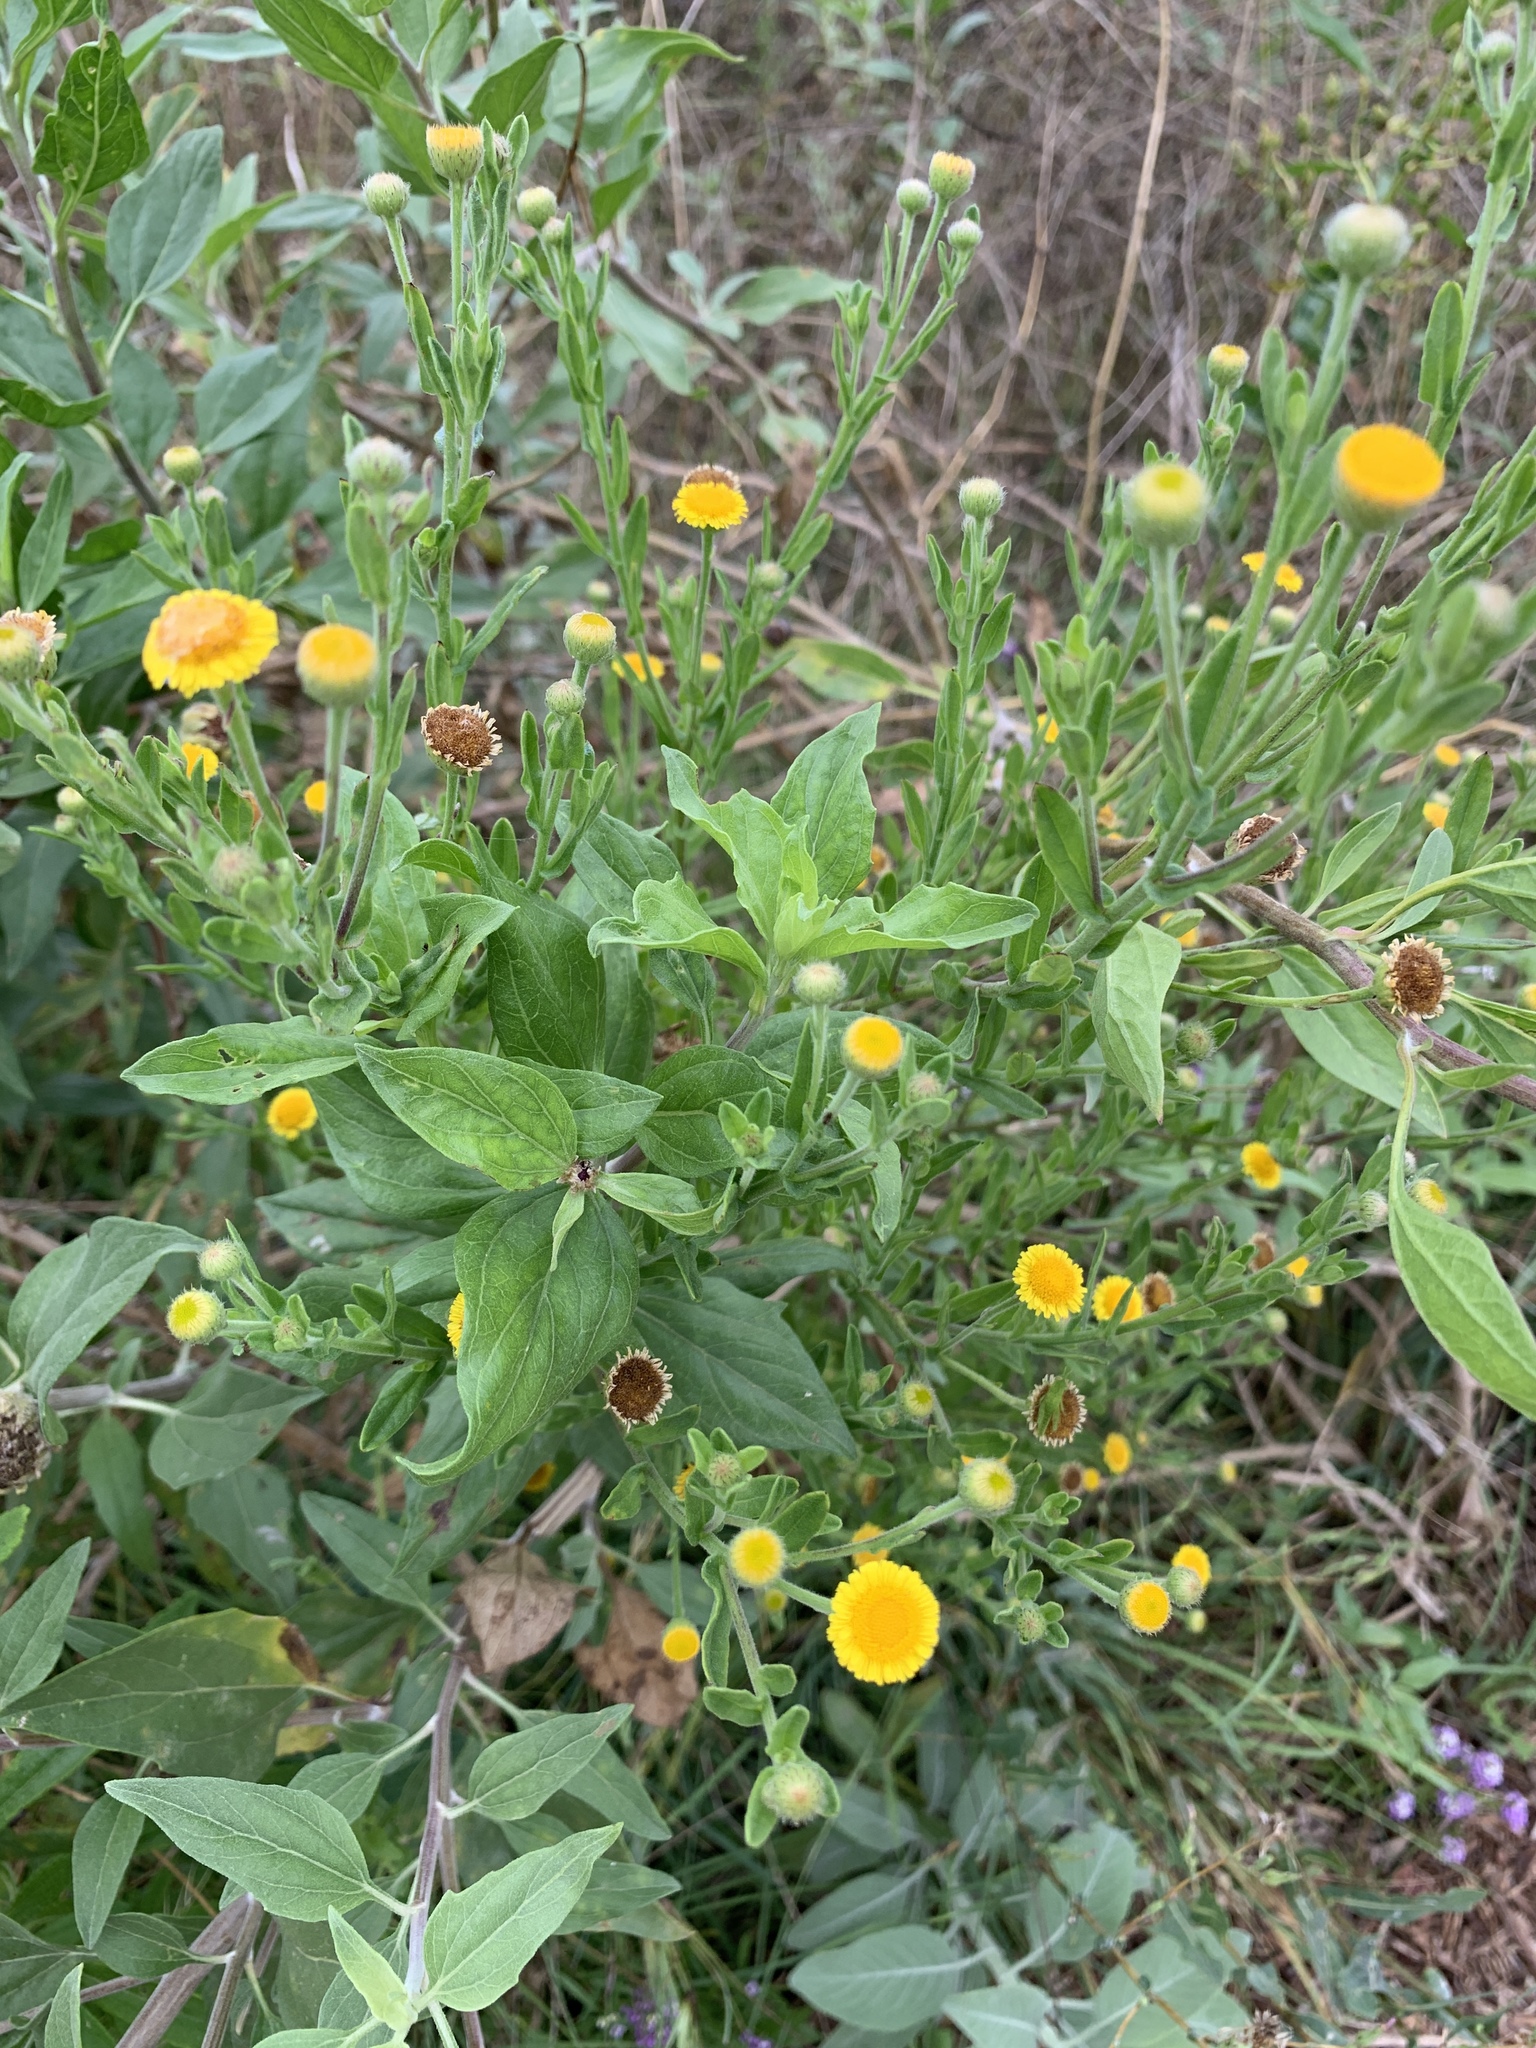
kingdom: Plantae
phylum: Tracheophyta
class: Magnoliopsida
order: Asterales
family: Asteraceae
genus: Pulicaria
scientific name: Pulicaria paludosa
